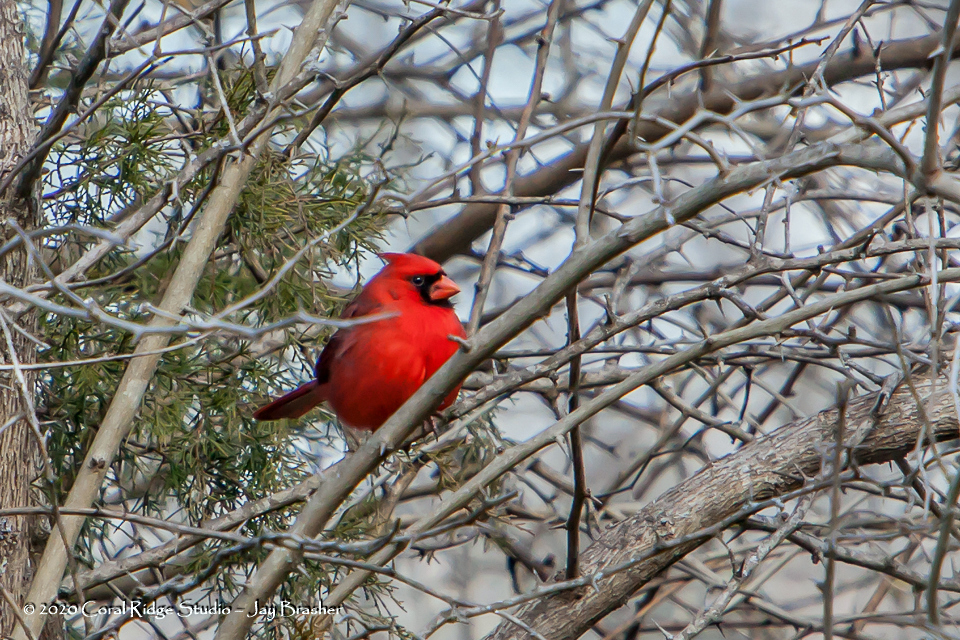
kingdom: Animalia
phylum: Chordata
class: Aves
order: Passeriformes
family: Cardinalidae
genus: Cardinalis
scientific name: Cardinalis cardinalis
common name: Northern cardinal
